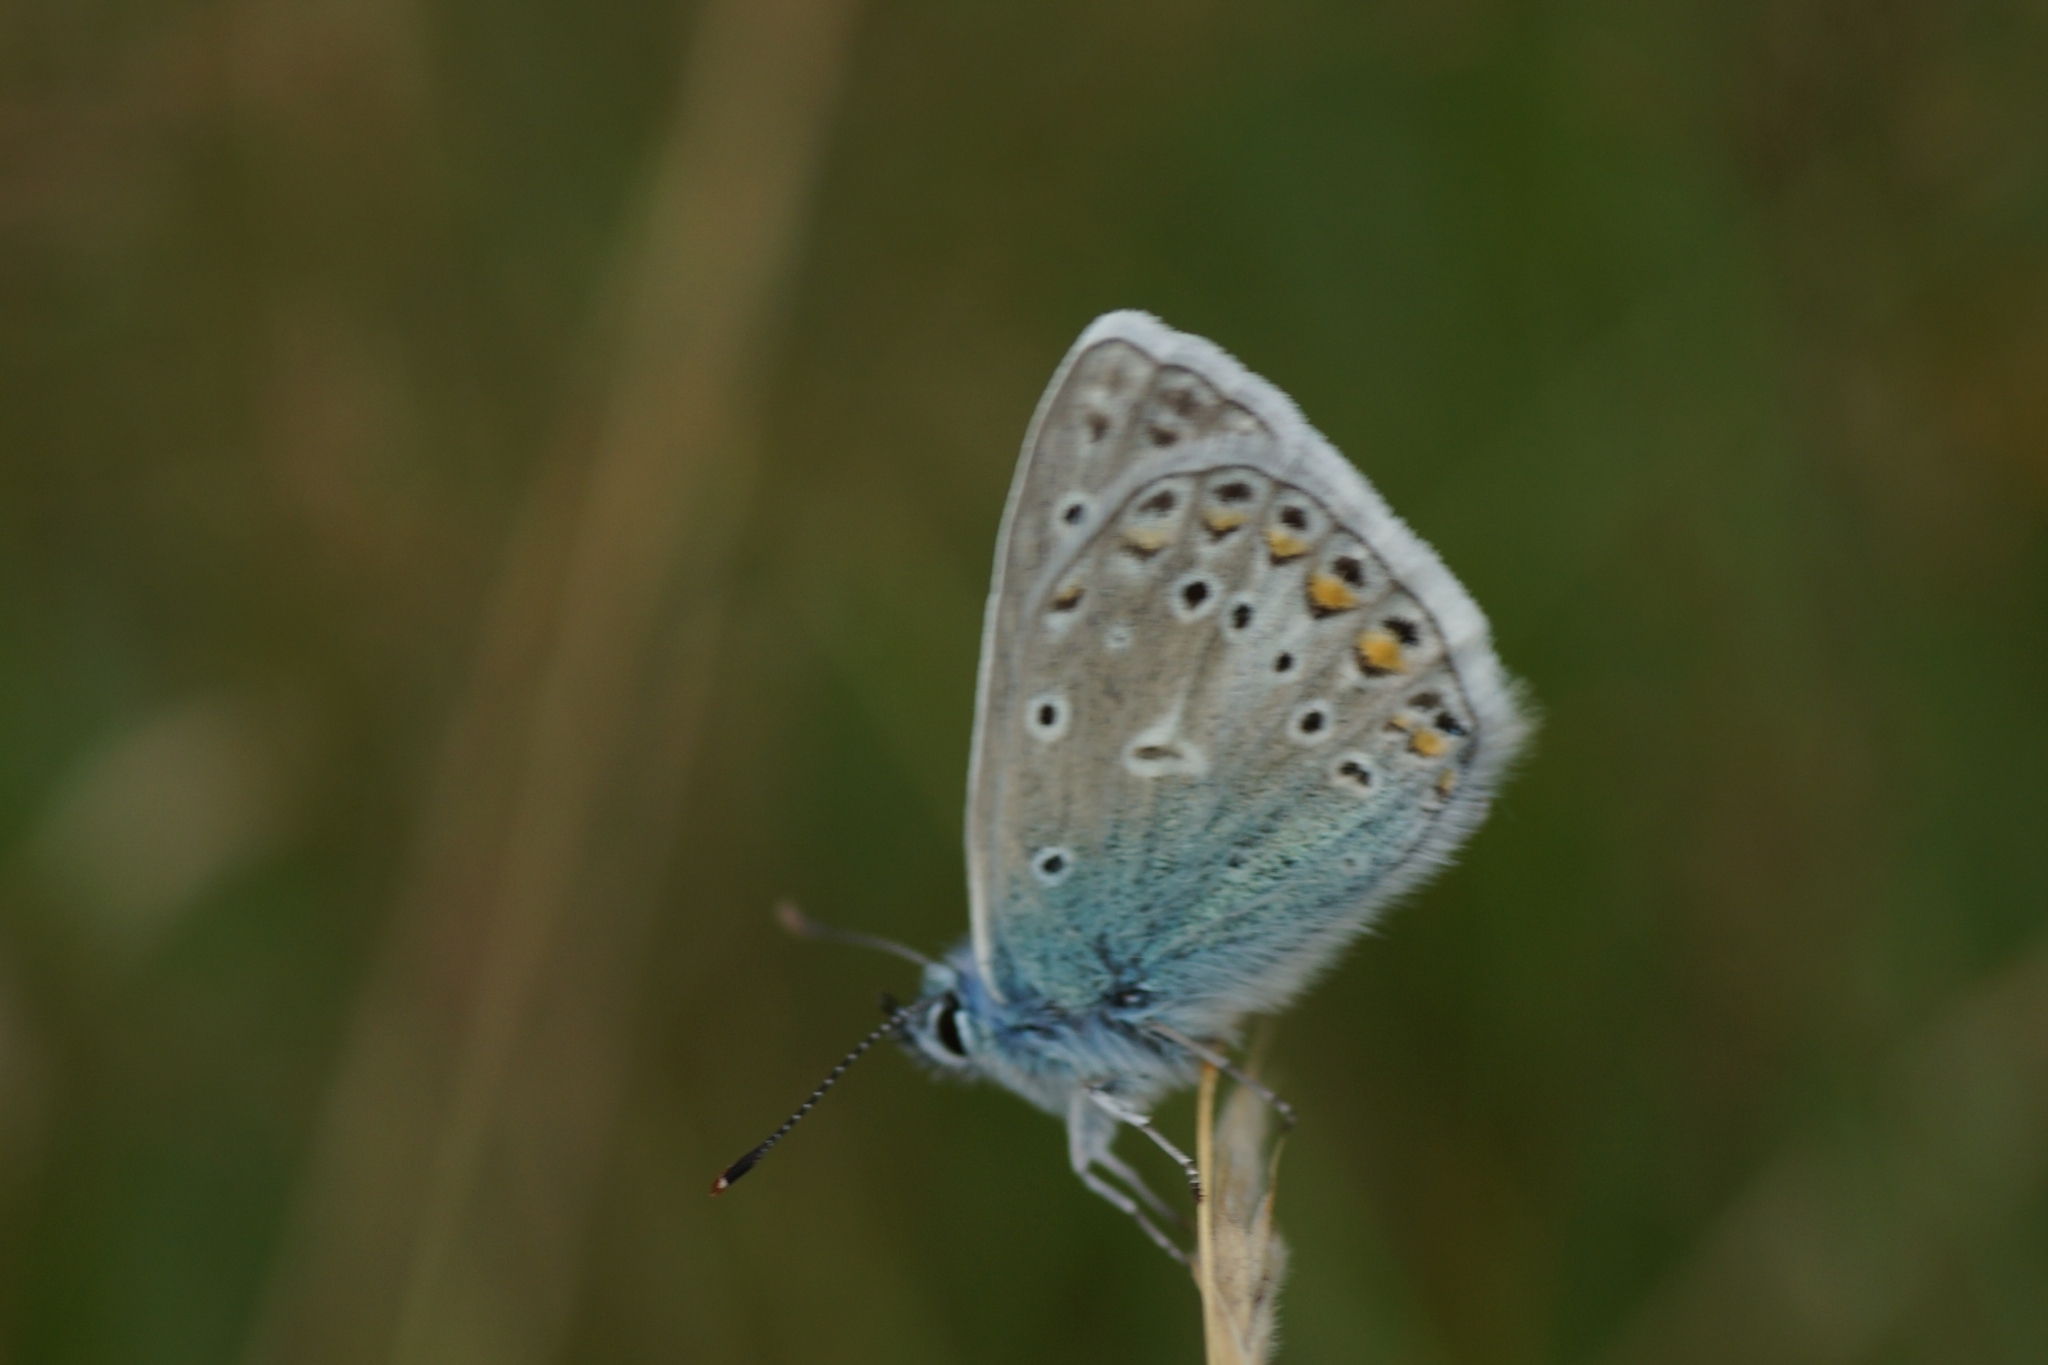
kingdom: Animalia
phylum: Arthropoda
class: Insecta
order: Lepidoptera
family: Lycaenidae
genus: Polyommatus
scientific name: Polyommatus icarus
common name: Common blue
